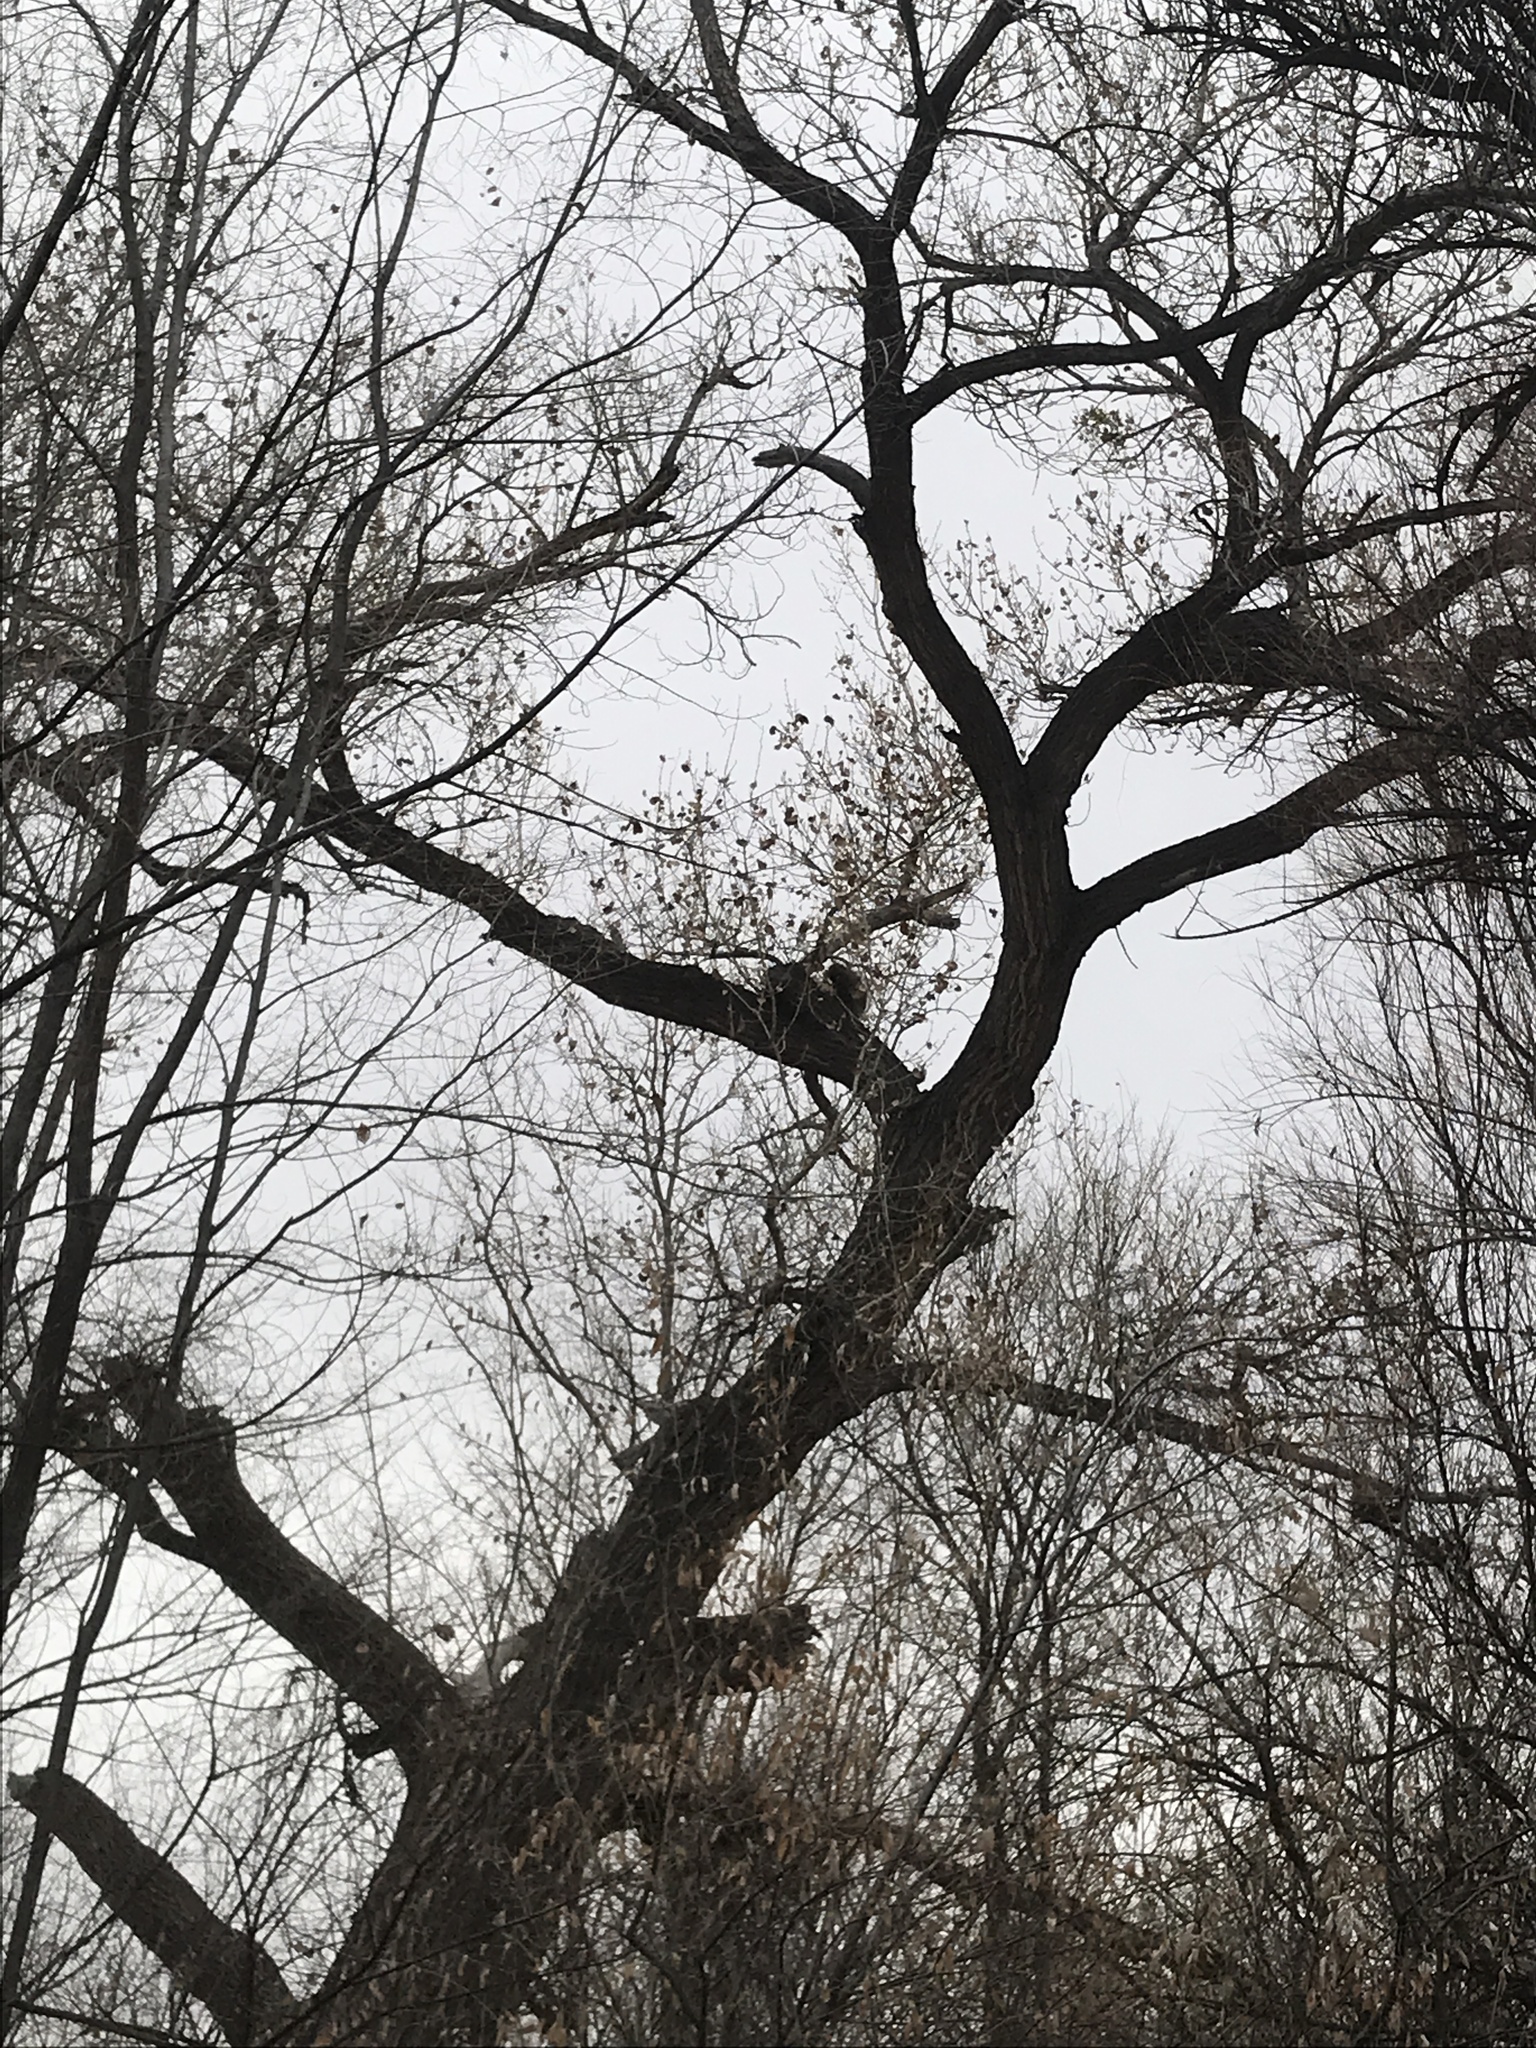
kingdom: Animalia
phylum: Chordata
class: Mammalia
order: Rodentia
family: Erethizontidae
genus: Erethizon
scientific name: Erethizon dorsatus
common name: North american porcupine
